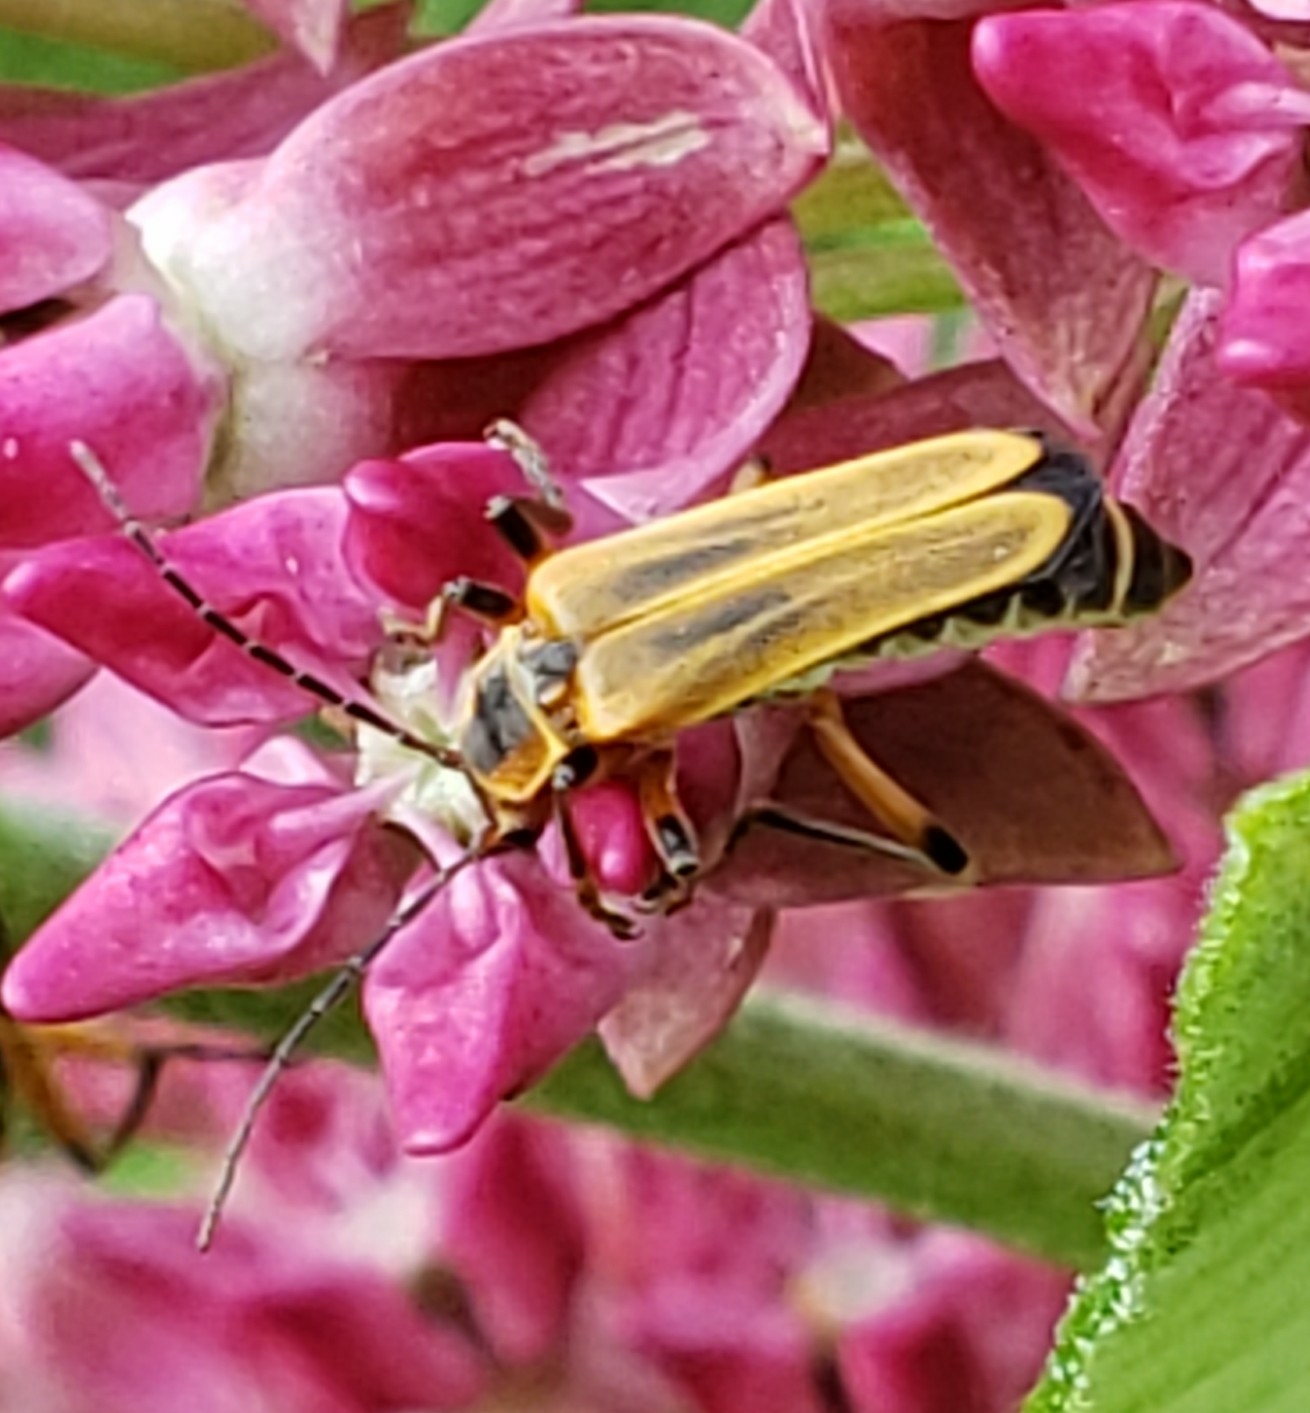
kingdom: Animalia
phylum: Arthropoda
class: Insecta
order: Coleoptera
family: Cantharidae
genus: Chauliognathus
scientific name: Chauliognathus marginatus
